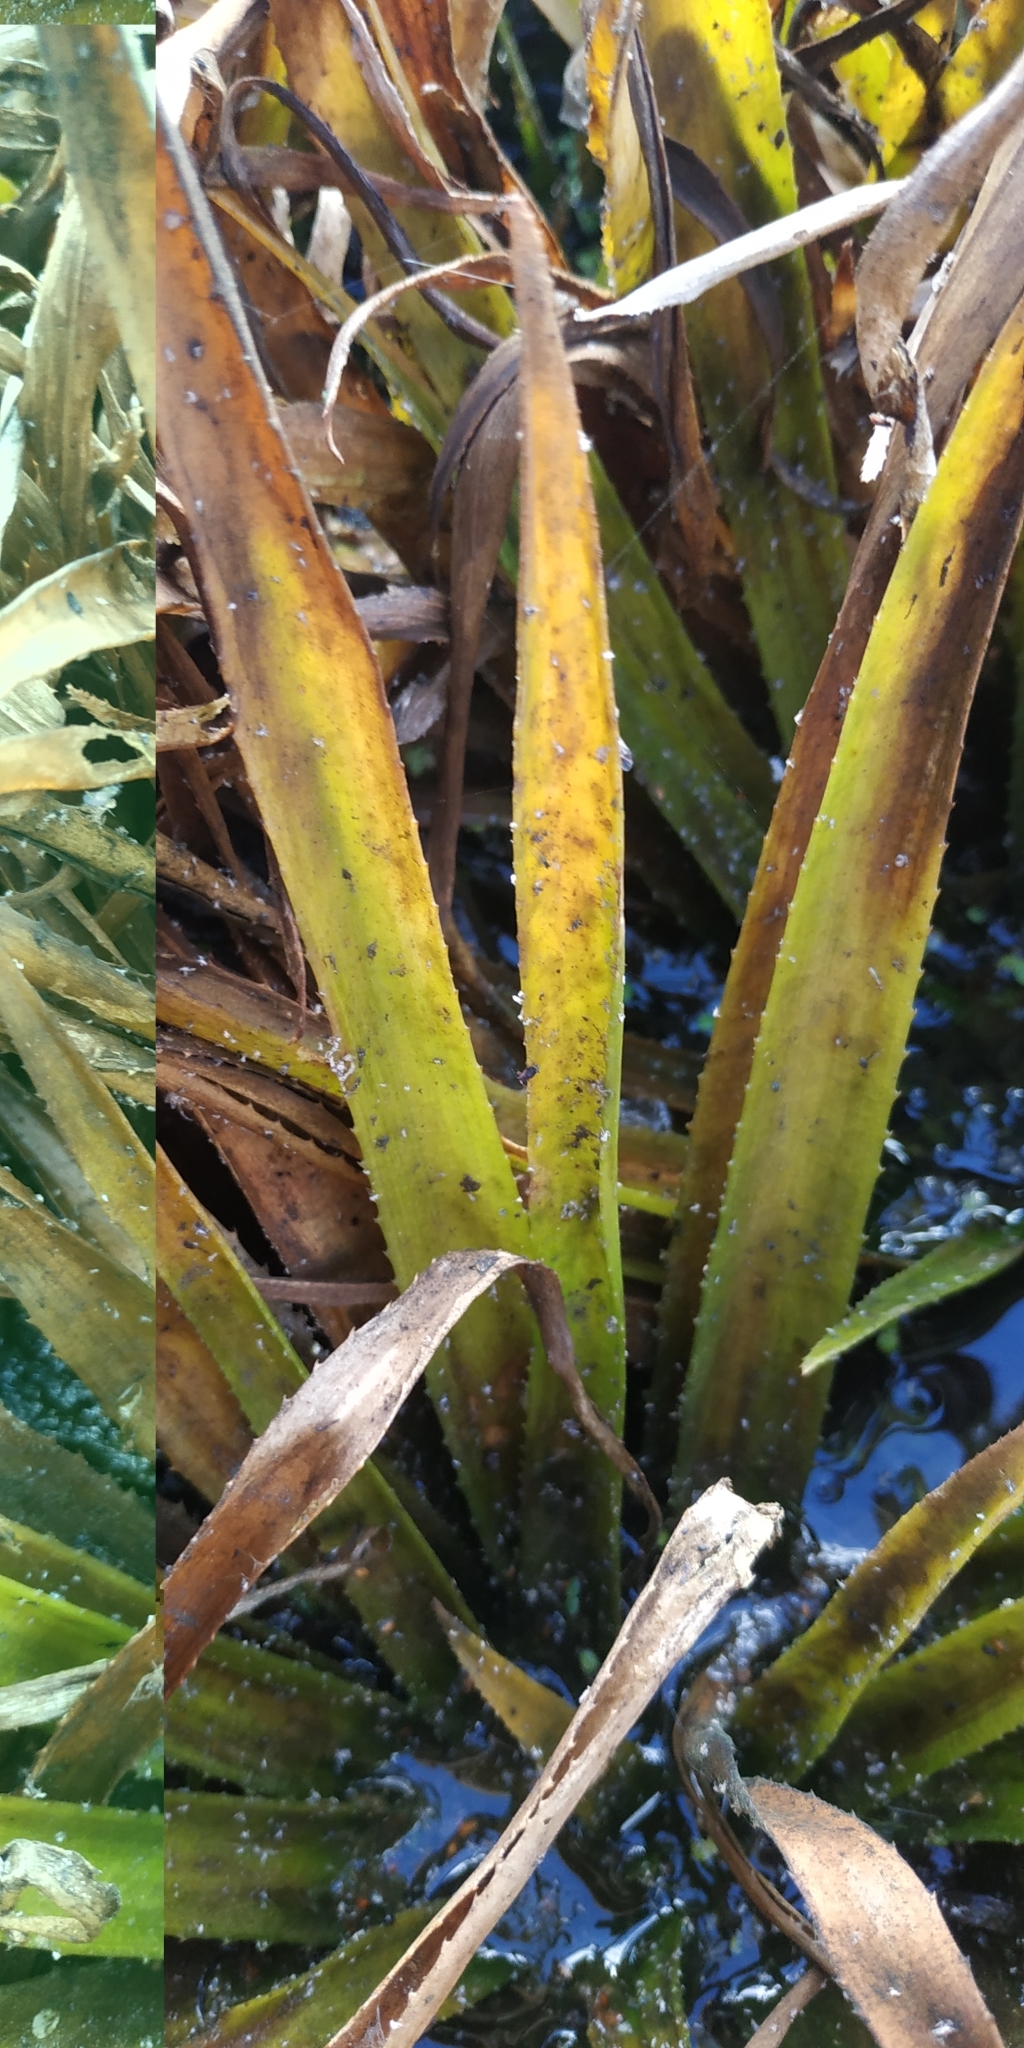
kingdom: Plantae
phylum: Tracheophyta
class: Liliopsida
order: Alismatales
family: Hydrocharitaceae
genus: Stratiotes
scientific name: Stratiotes aloides
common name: Water-soldier
